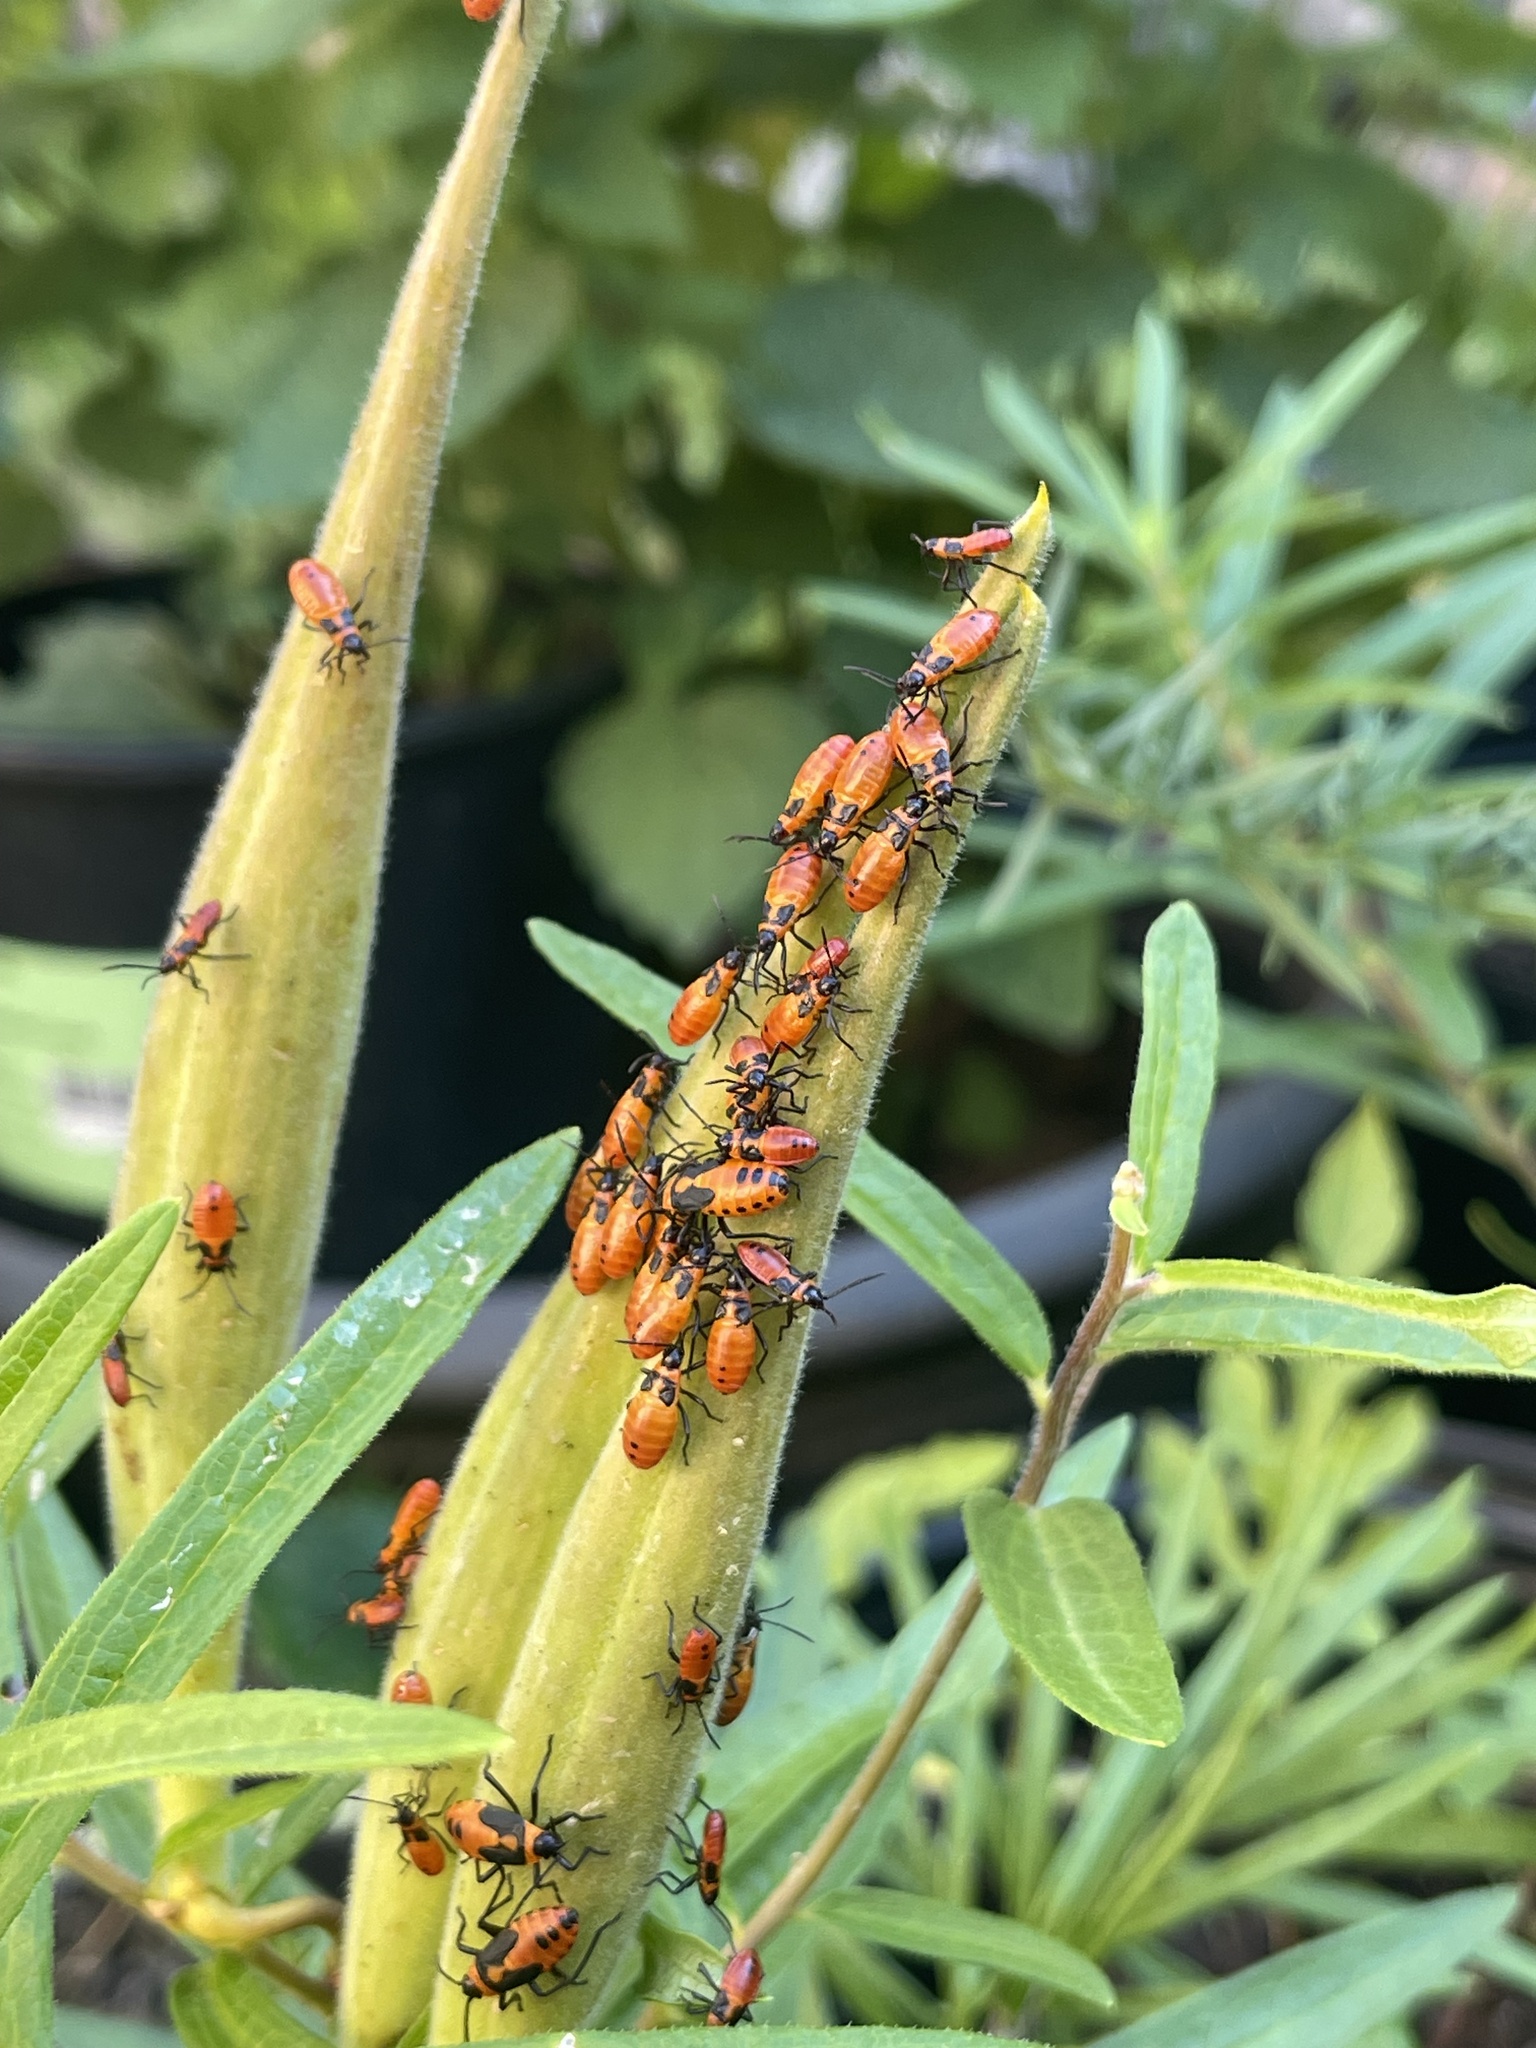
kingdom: Animalia
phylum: Arthropoda
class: Insecta
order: Hemiptera
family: Lygaeidae
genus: Oncopeltus
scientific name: Oncopeltus fasciatus
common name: Large milkweed bug
